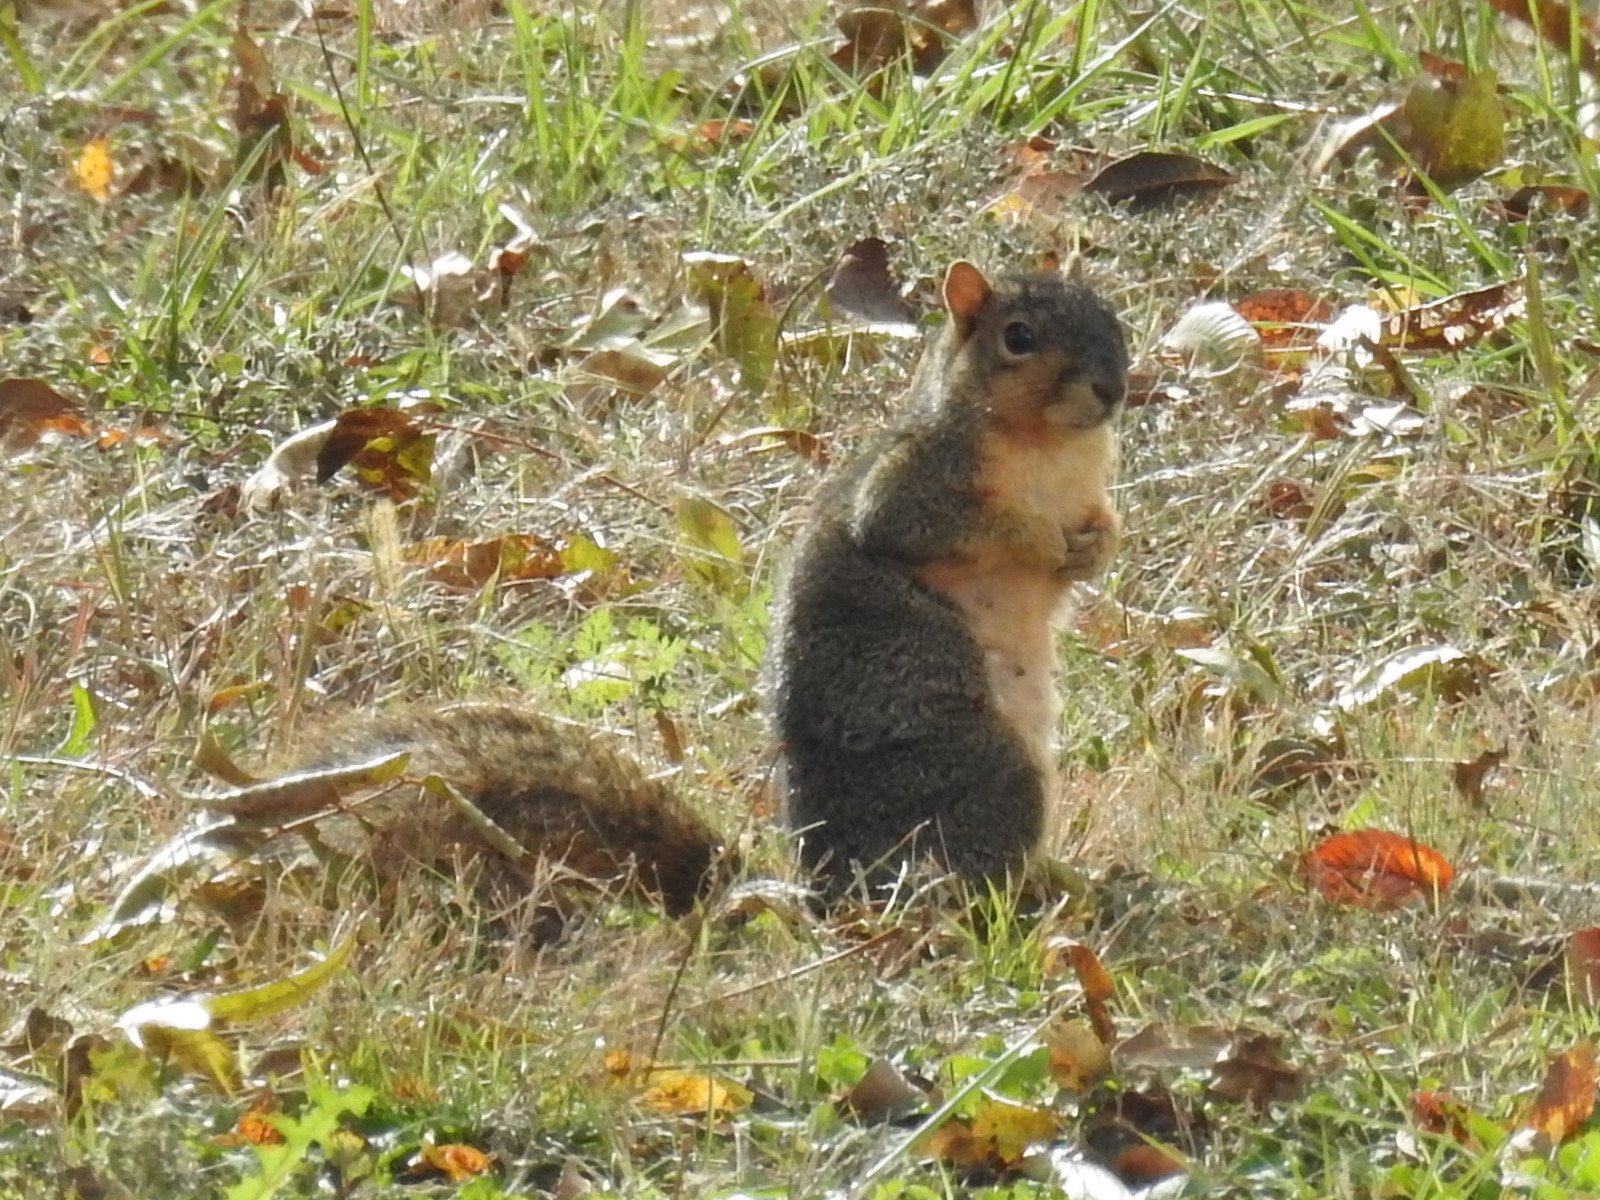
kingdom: Animalia
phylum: Chordata
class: Mammalia
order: Rodentia
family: Sciuridae
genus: Sciurus
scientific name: Sciurus niger
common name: Fox squirrel
